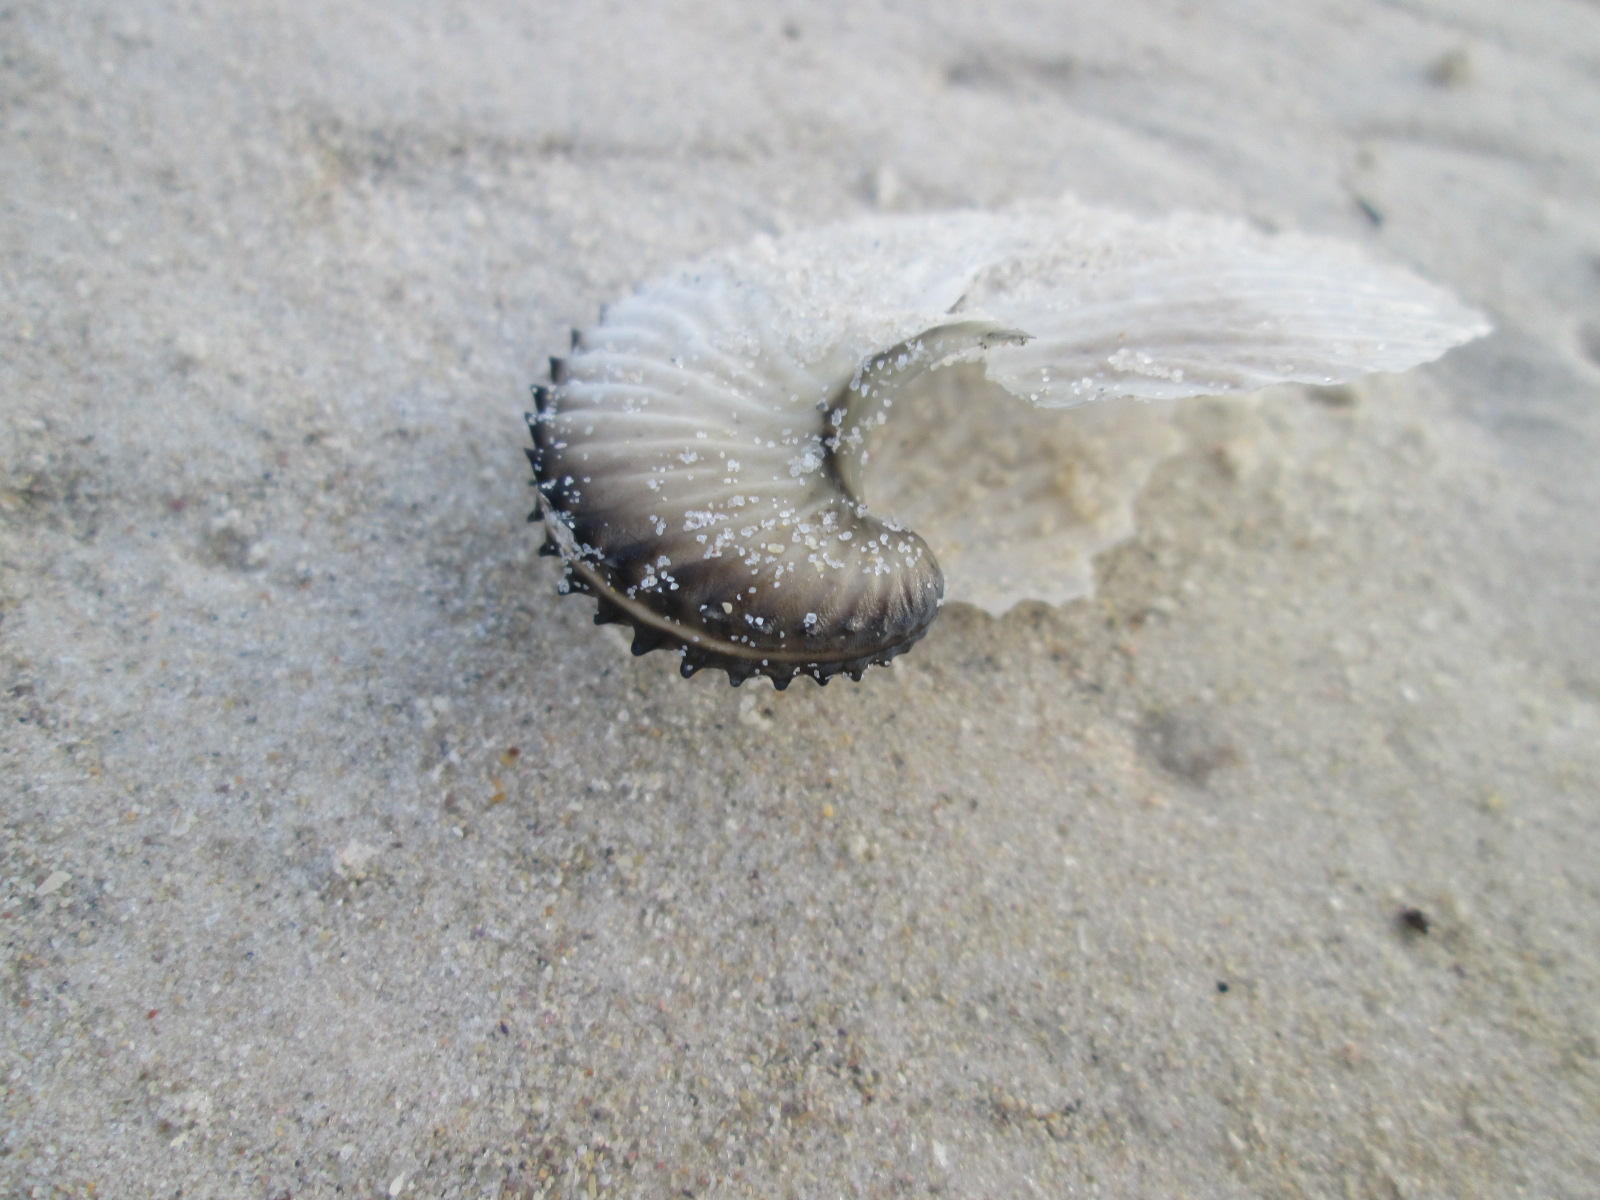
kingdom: Animalia
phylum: Mollusca
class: Cephalopoda
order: Octopoda
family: Argonautidae
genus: Argonauta
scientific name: Argonauta argo
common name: Common paper nautilus
